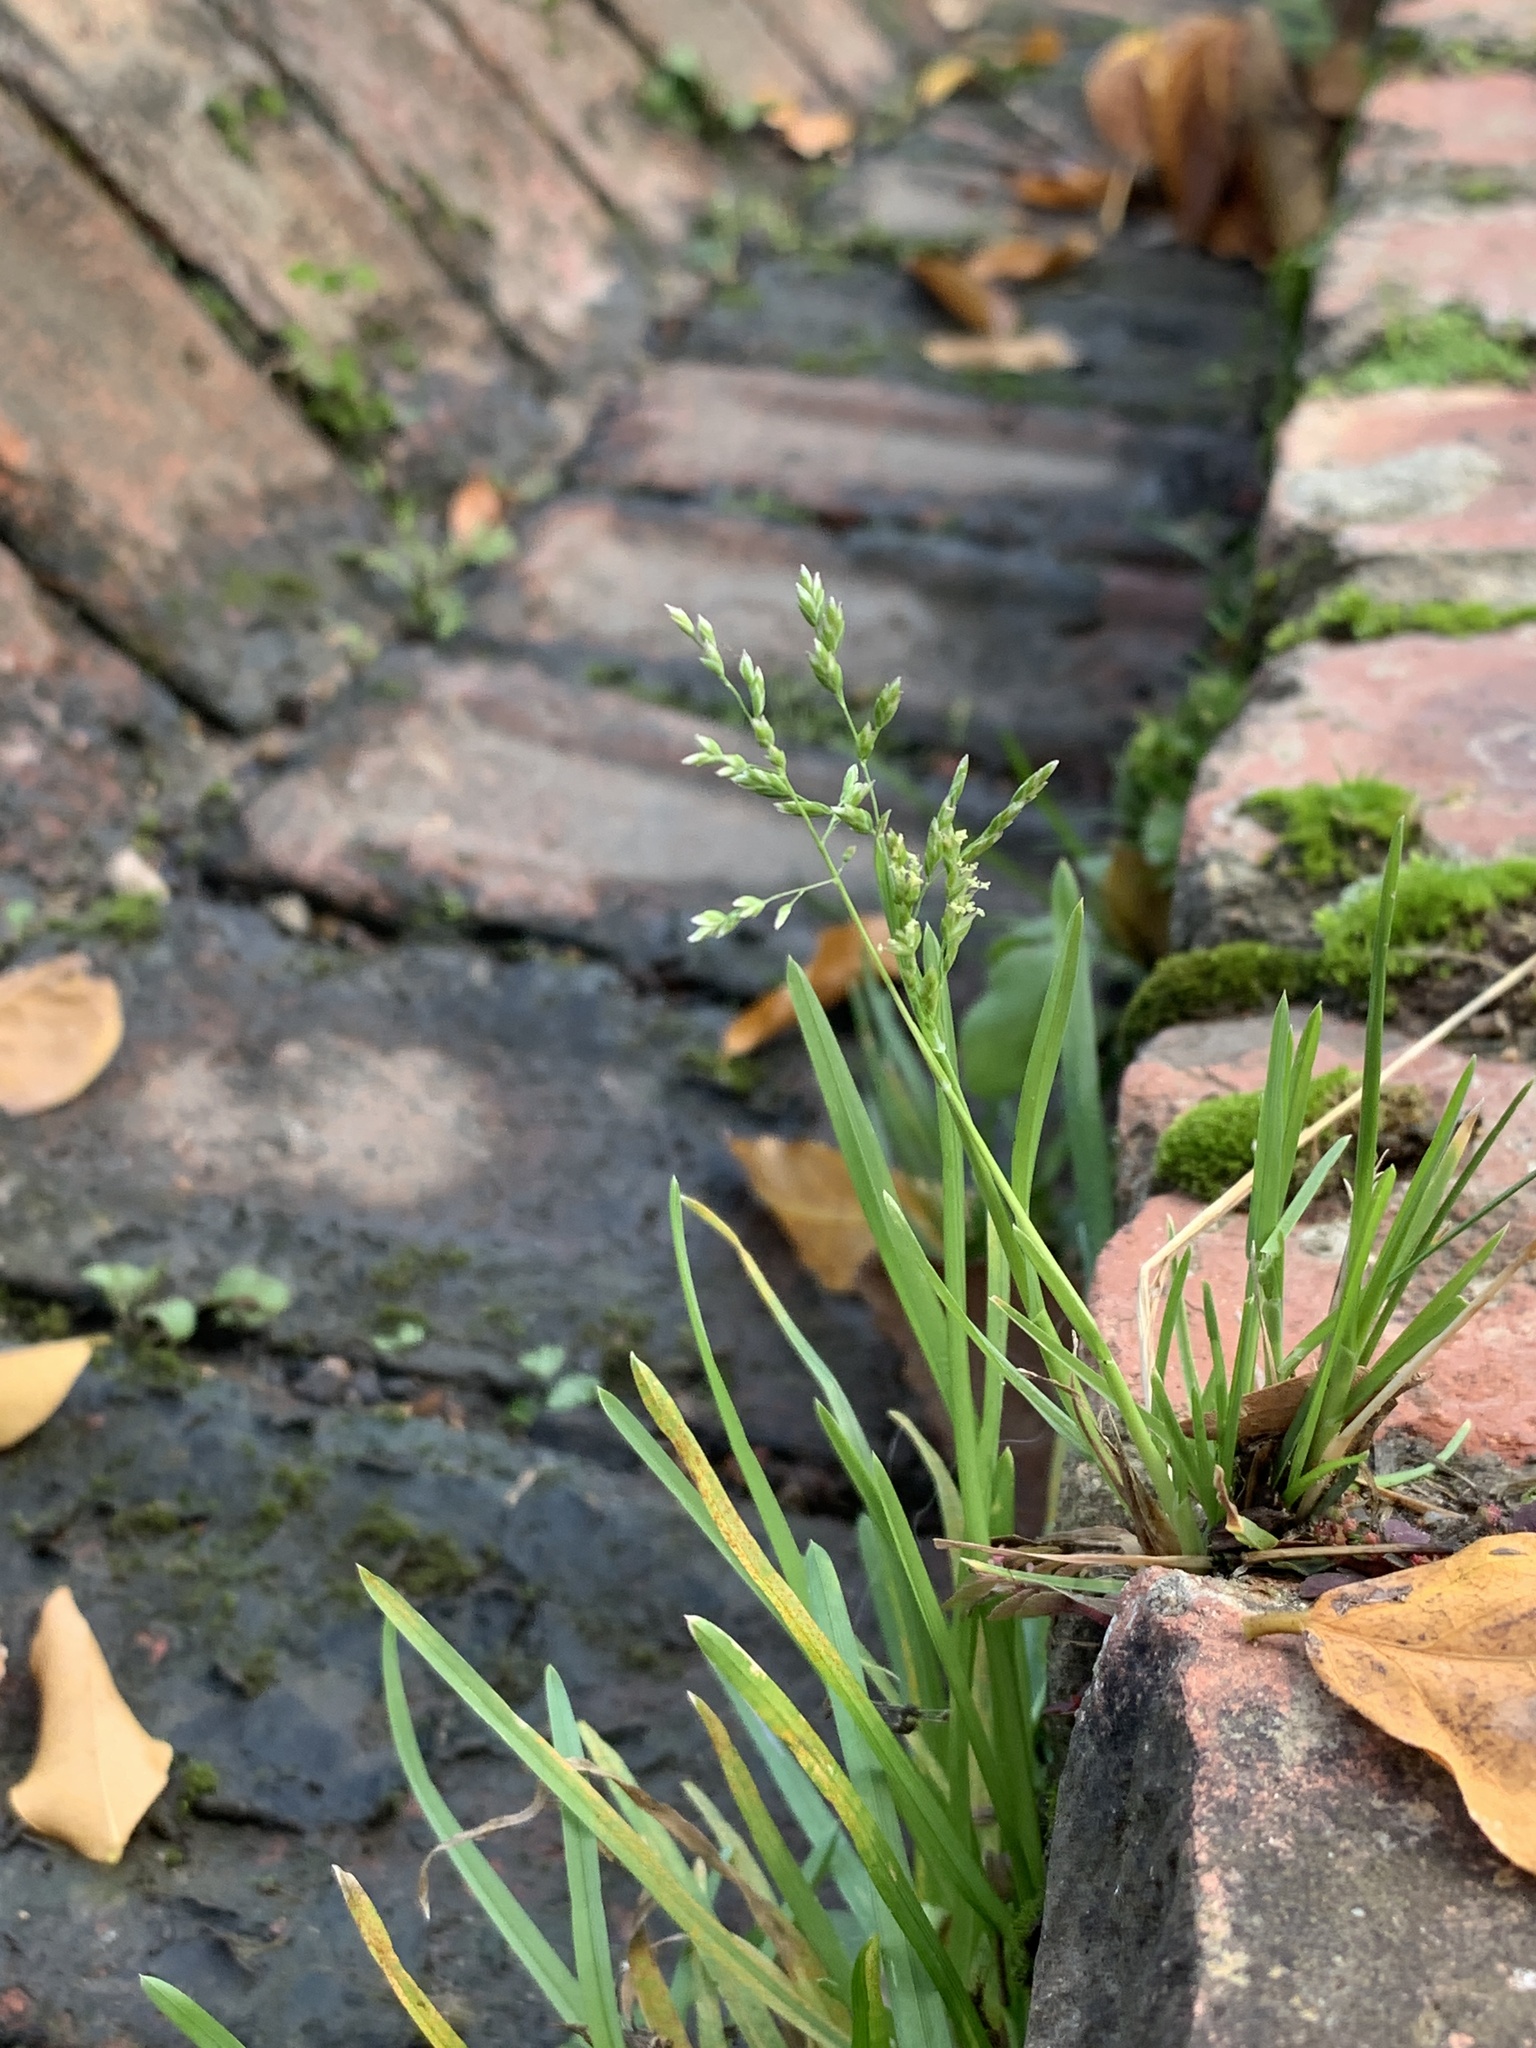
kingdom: Plantae
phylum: Tracheophyta
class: Liliopsida
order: Poales
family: Poaceae
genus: Poa
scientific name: Poa annua
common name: Annual bluegrass
